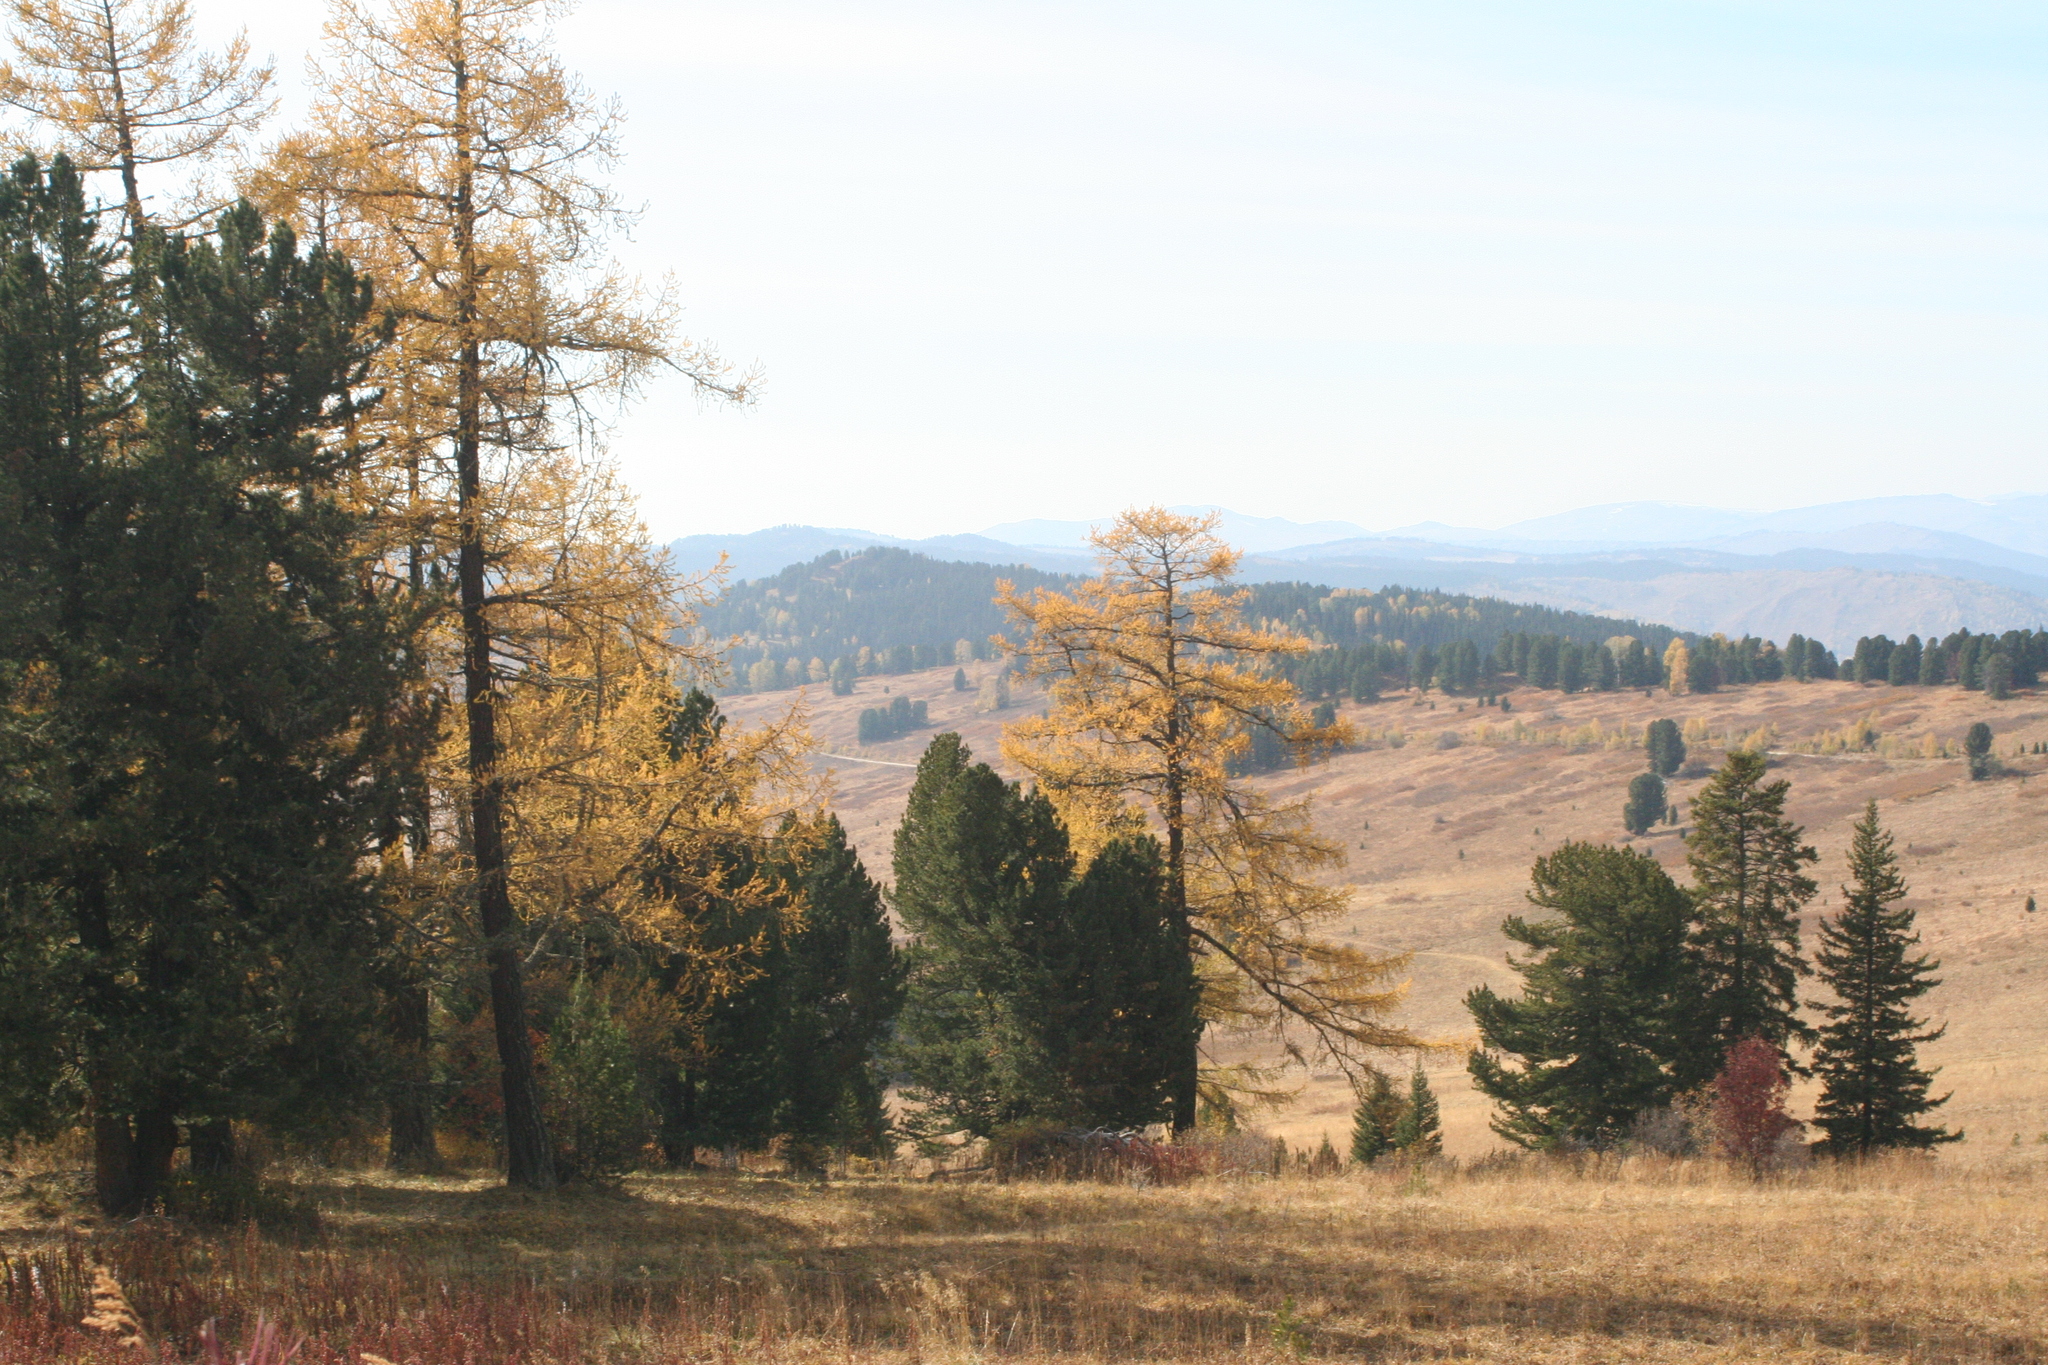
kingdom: Plantae
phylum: Tracheophyta
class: Pinopsida
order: Pinales
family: Pinaceae
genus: Larix
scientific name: Larix sibirica
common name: Siberian larch
